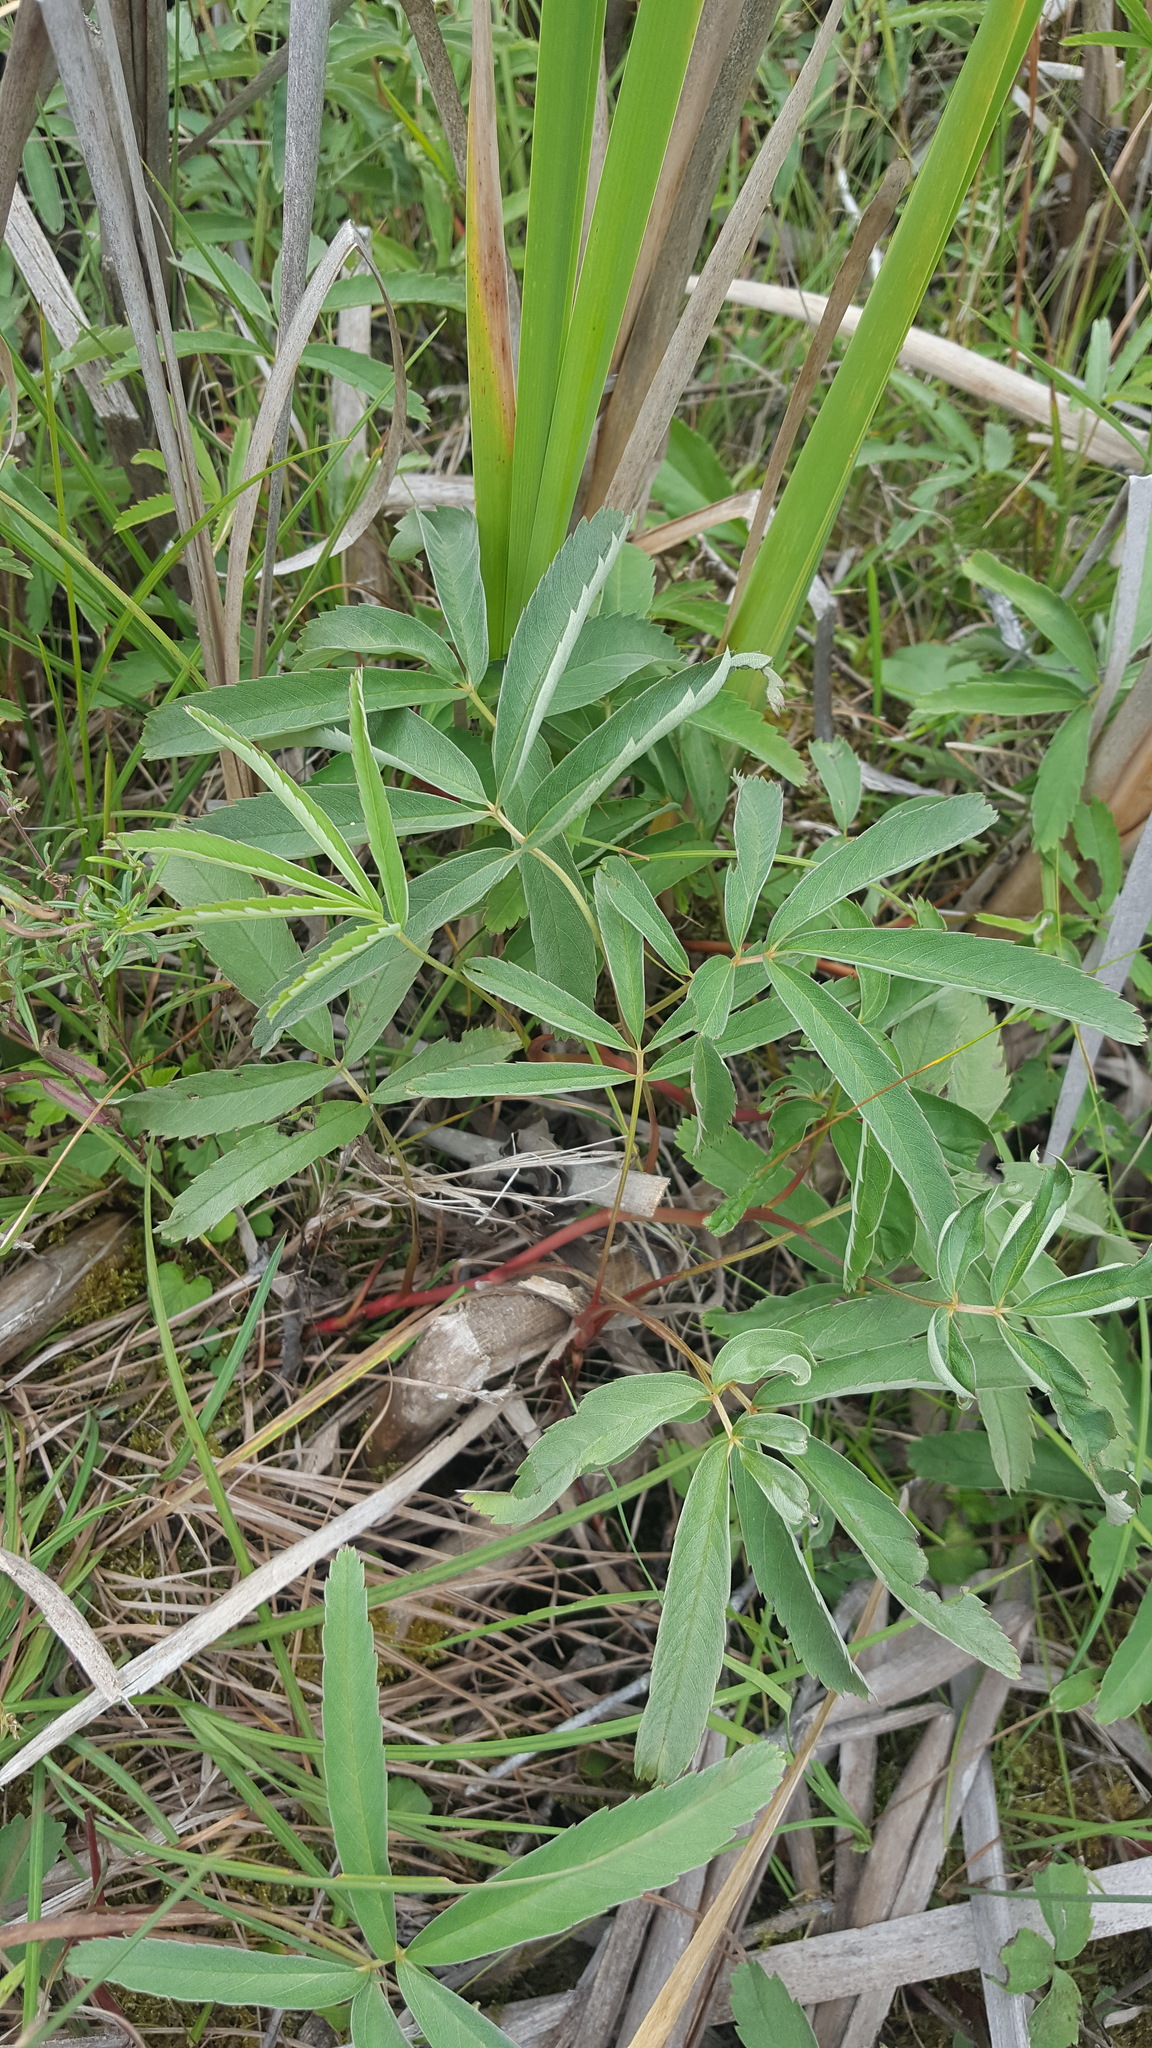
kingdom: Plantae
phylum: Tracheophyta
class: Magnoliopsida
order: Rosales
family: Rosaceae
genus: Comarum
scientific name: Comarum palustre
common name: Marsh cinquefoil
